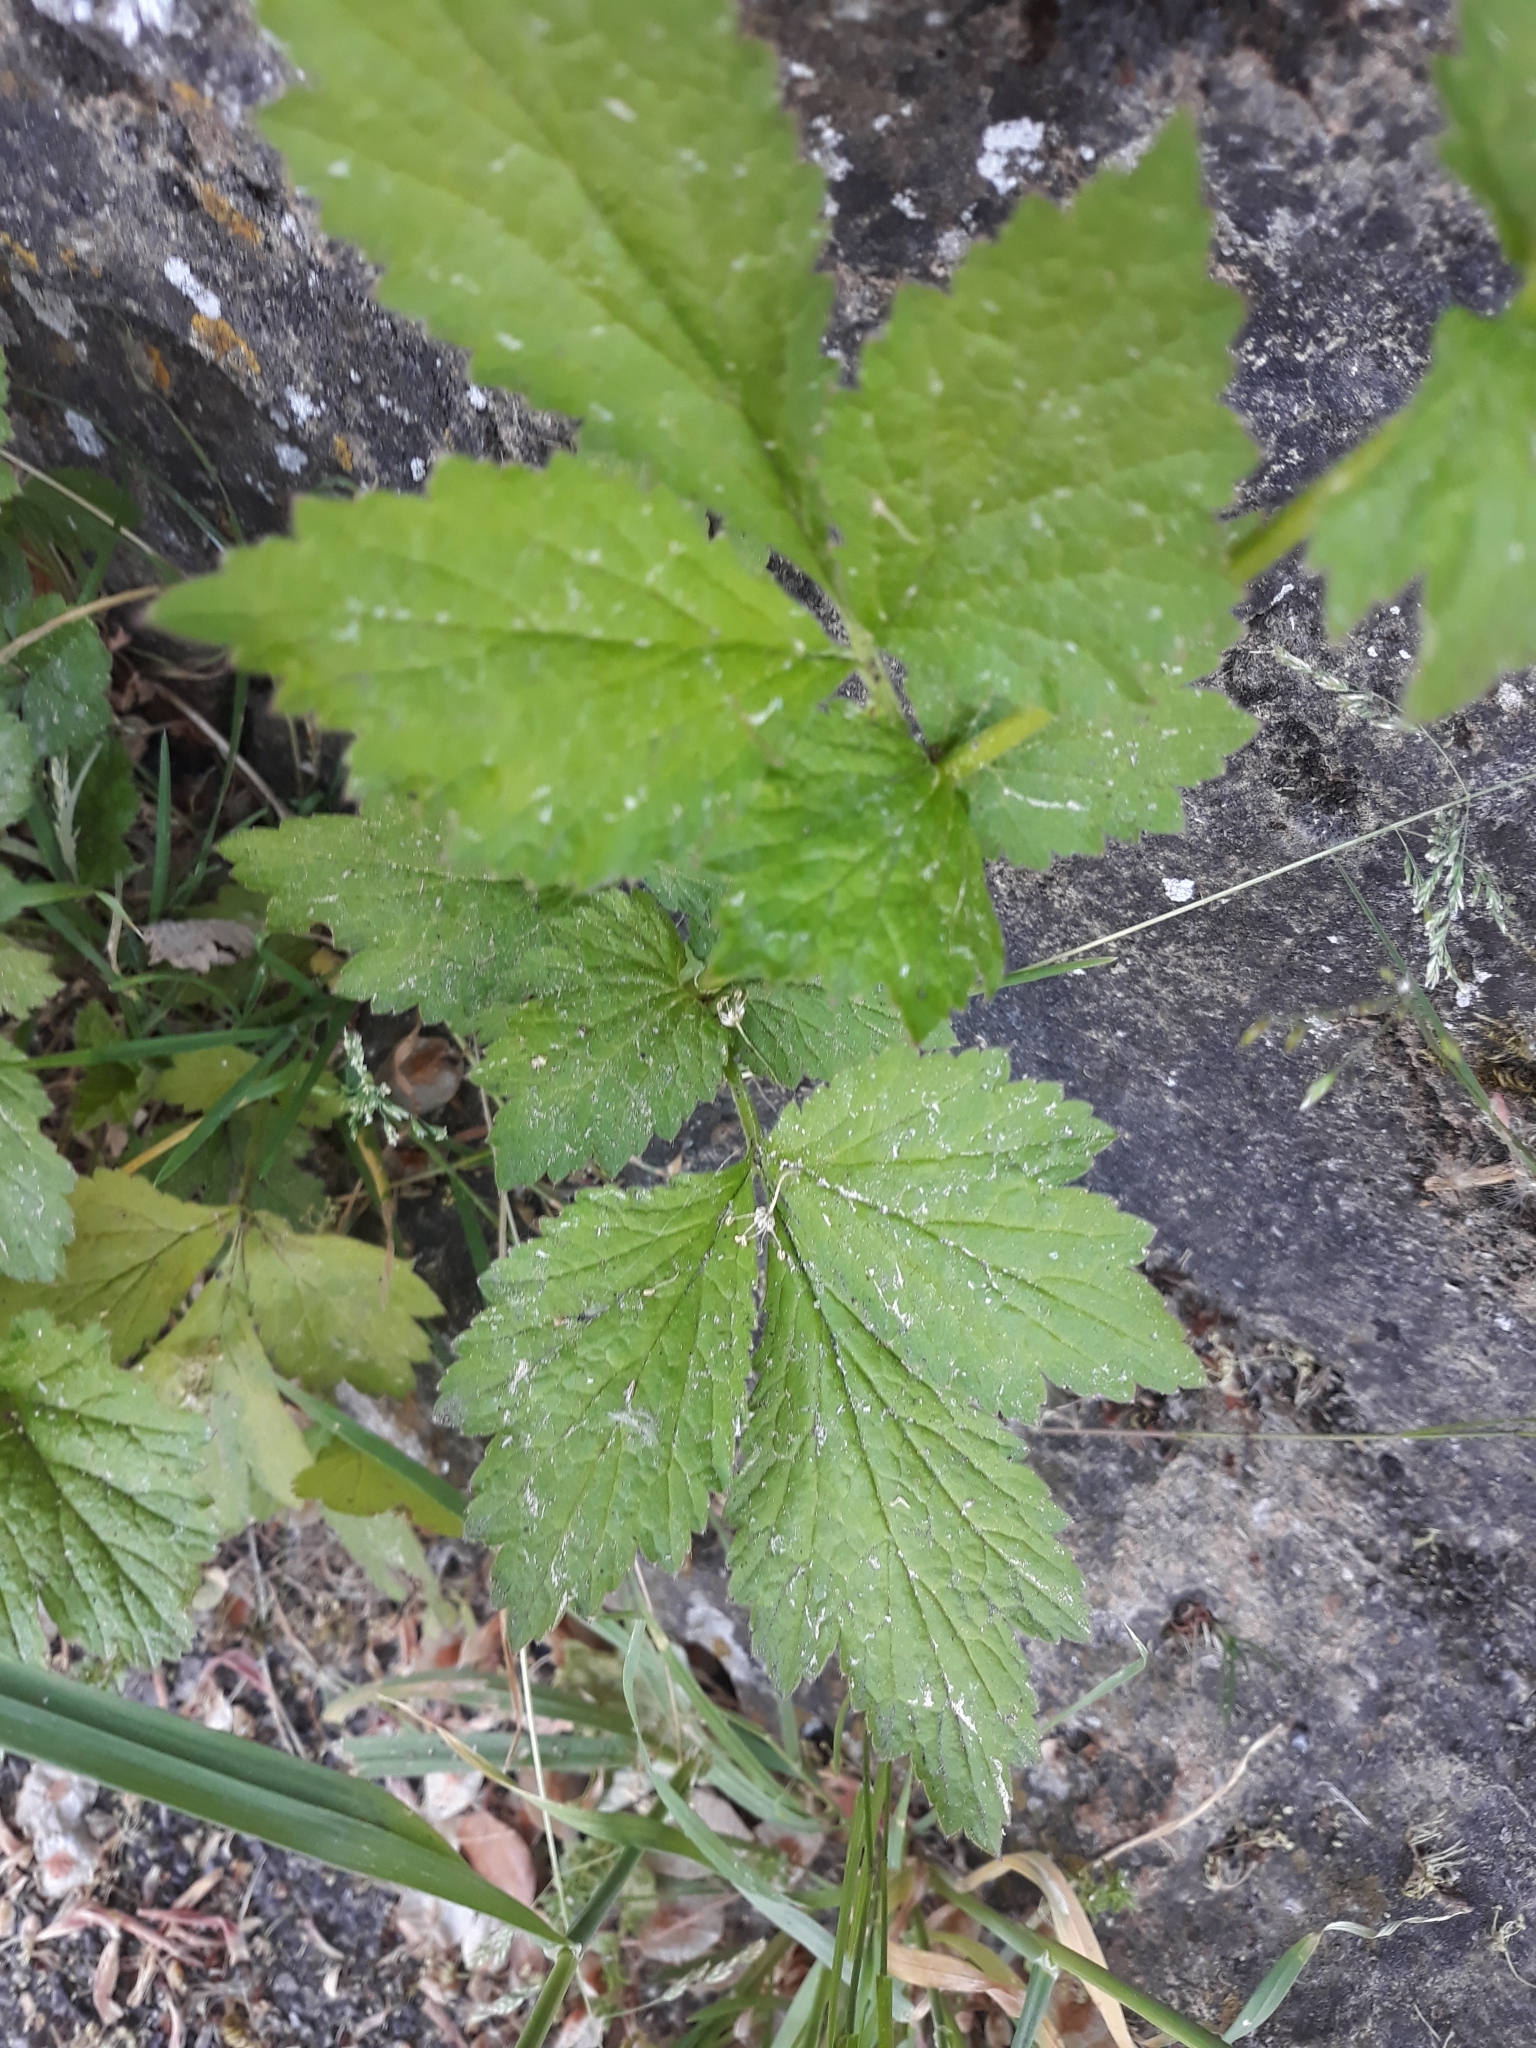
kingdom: Plantae
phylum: Tracheophyta
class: Magnoliopsida
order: Rosales
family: Rosaceae
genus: Geum
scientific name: Geum urbanum
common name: Wood avens
